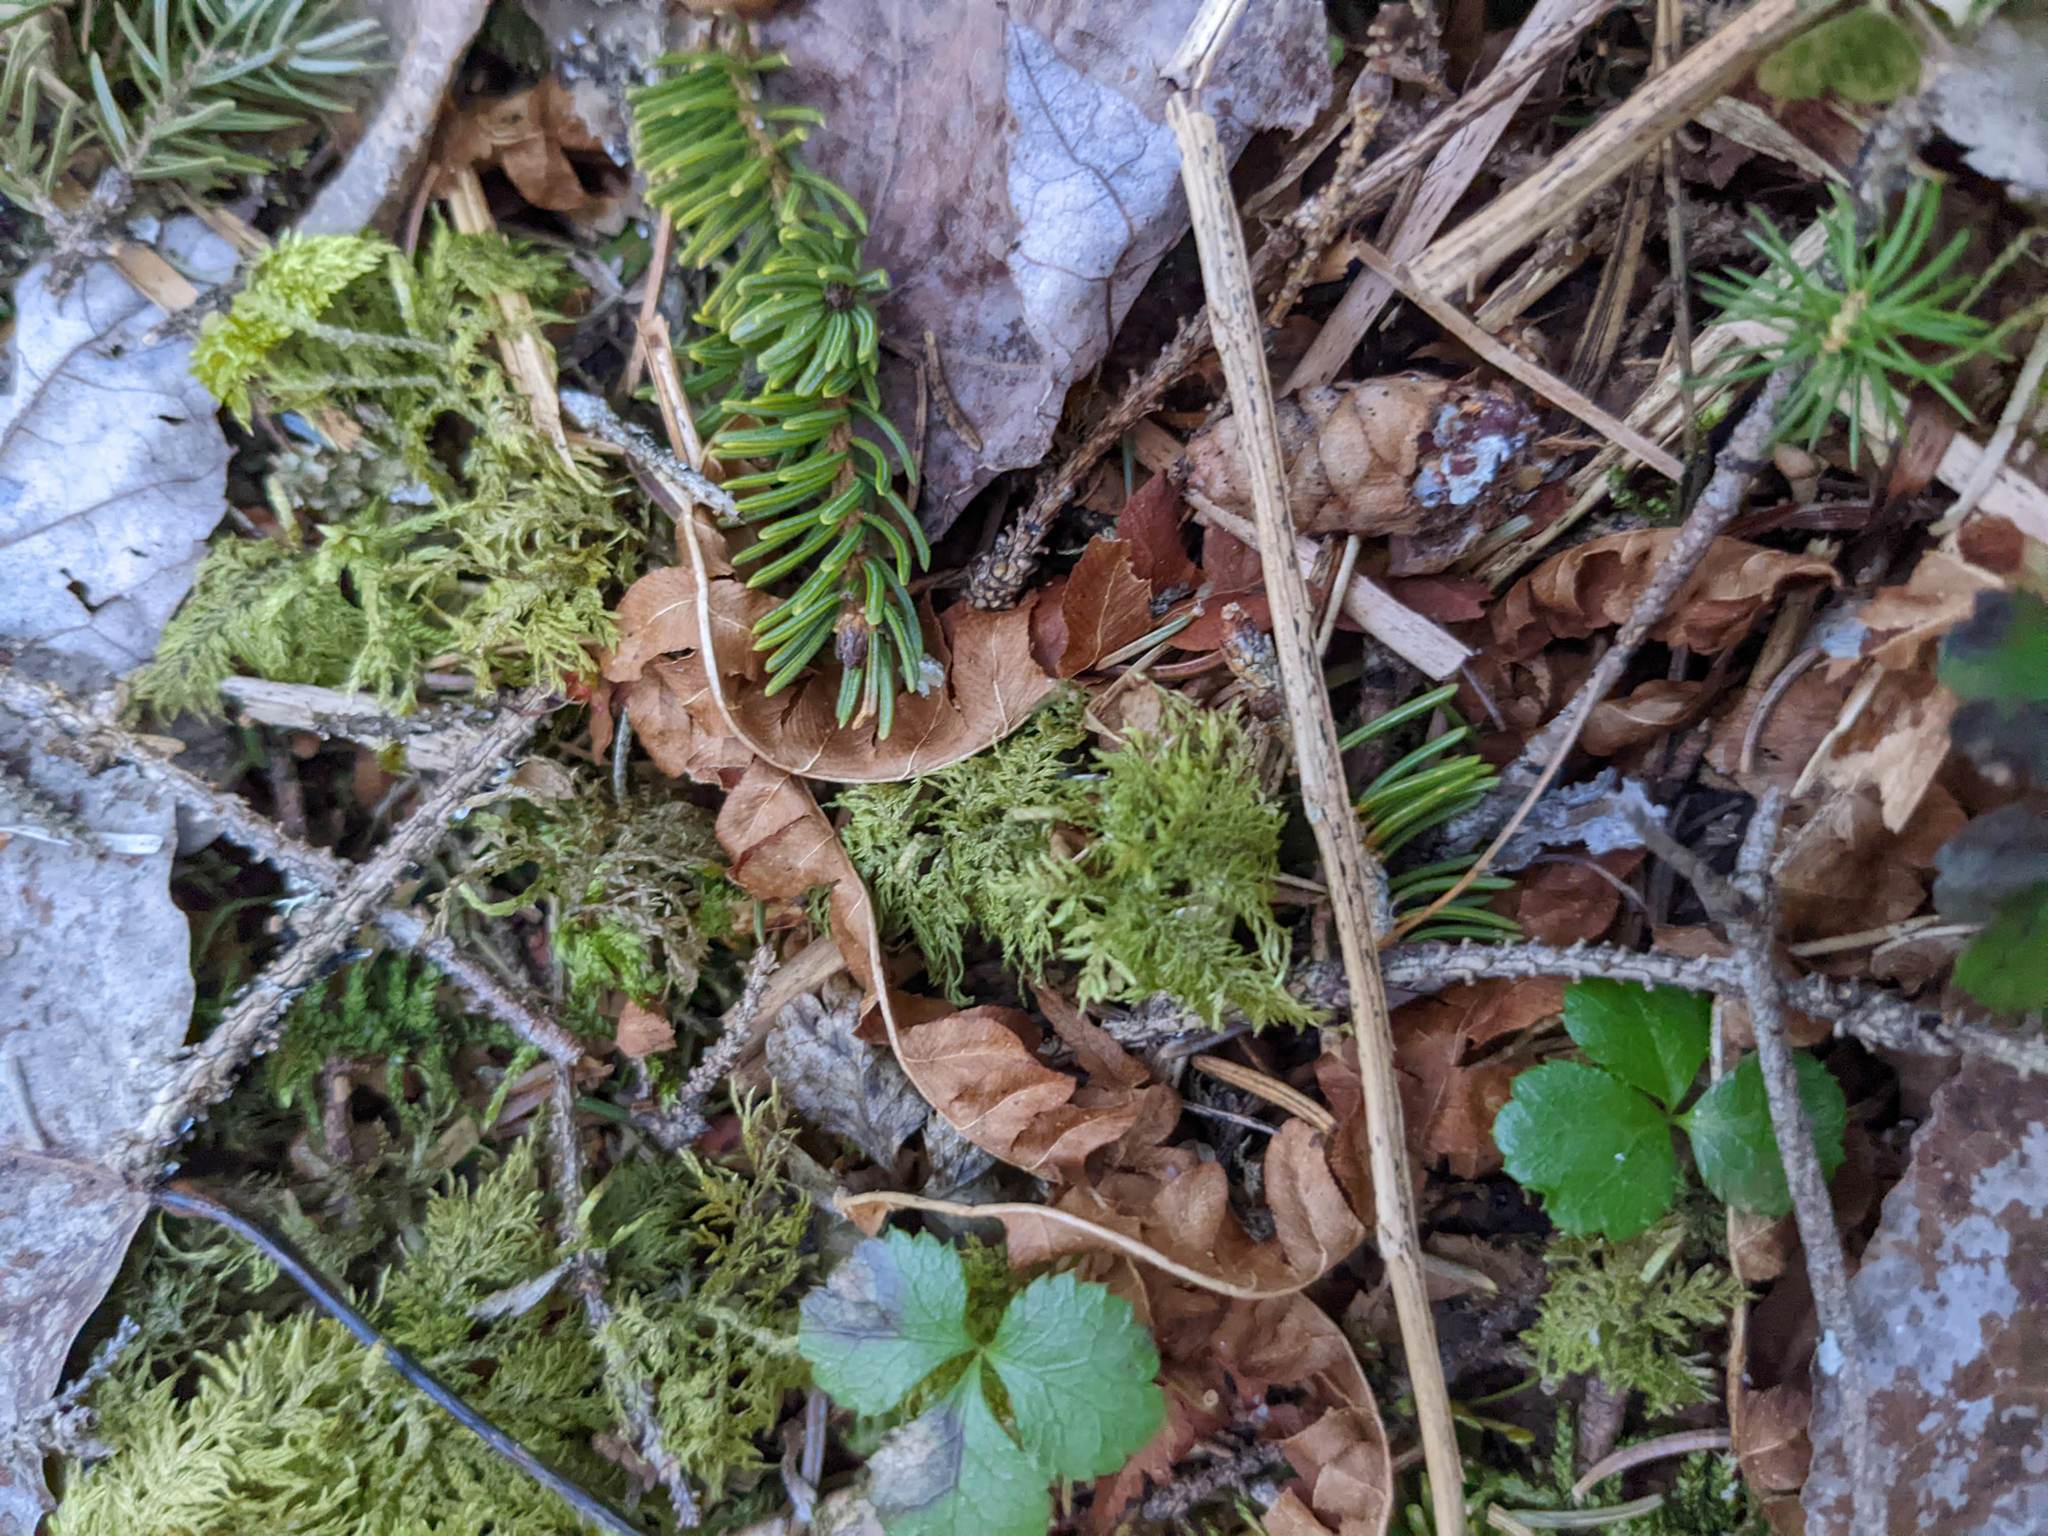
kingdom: Plantae
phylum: Bryophyta
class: Bryopsida
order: Hypnales
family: Hylocomiaceae
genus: Hylocomium
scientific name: Hylocomium splendens
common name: Stairstep moss
